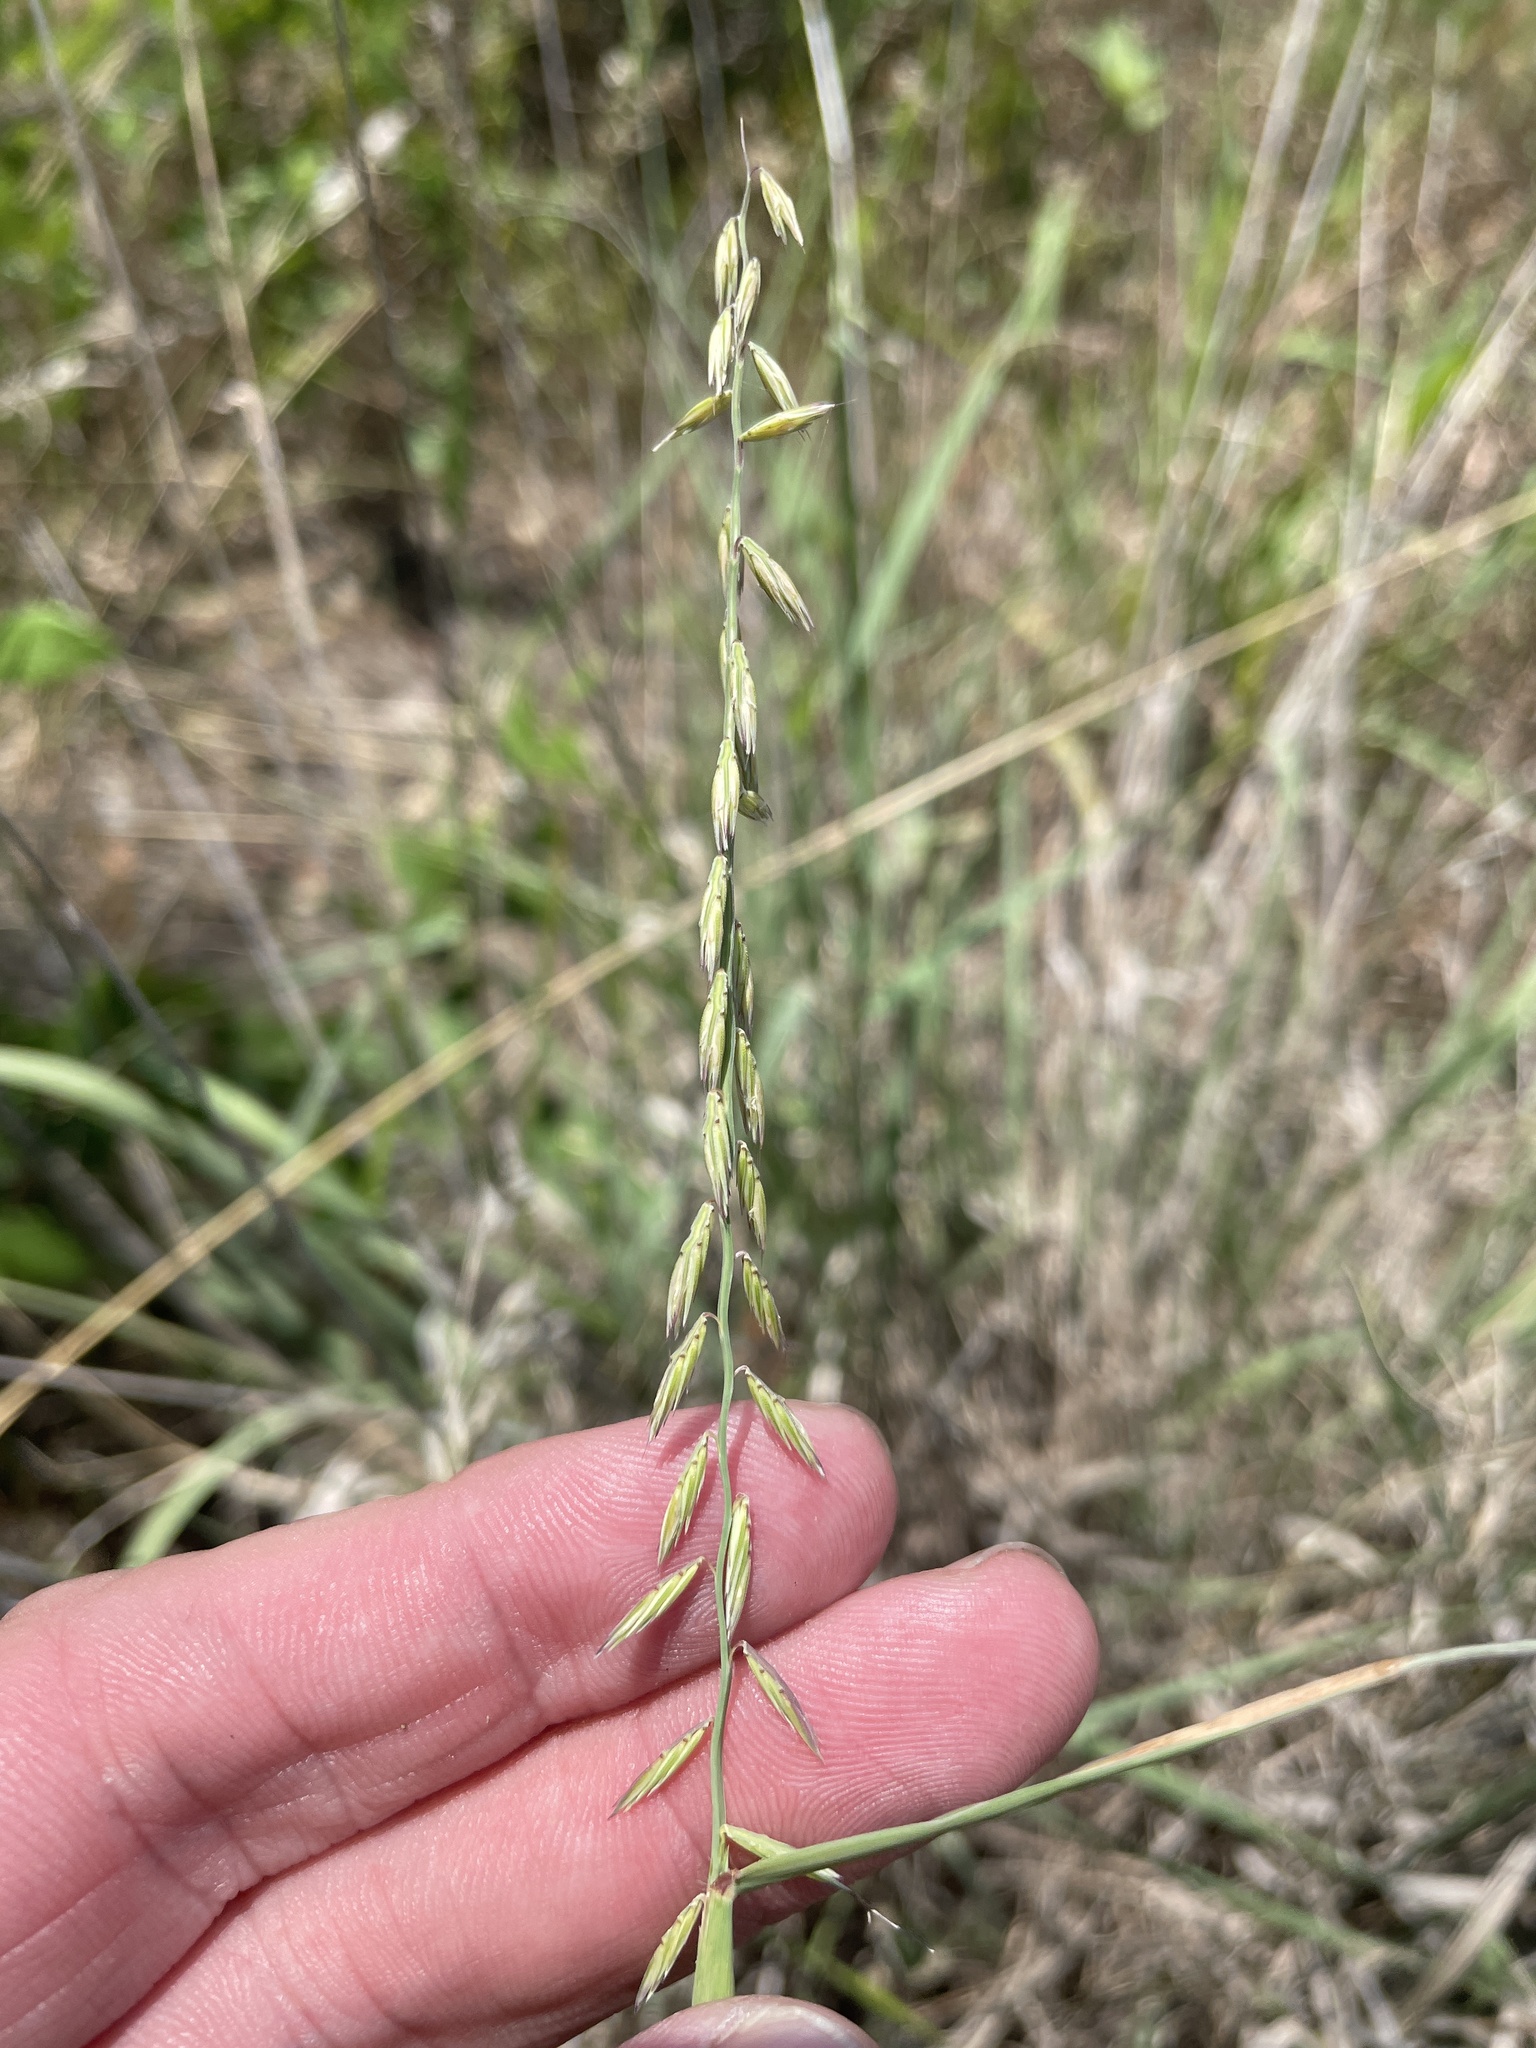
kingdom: Plantae
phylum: Tracheophyta
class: Liliopsida
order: Poales
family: Poaceae
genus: Bouteloua
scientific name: Bouteloua curtipendula
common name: Side-oats grama
